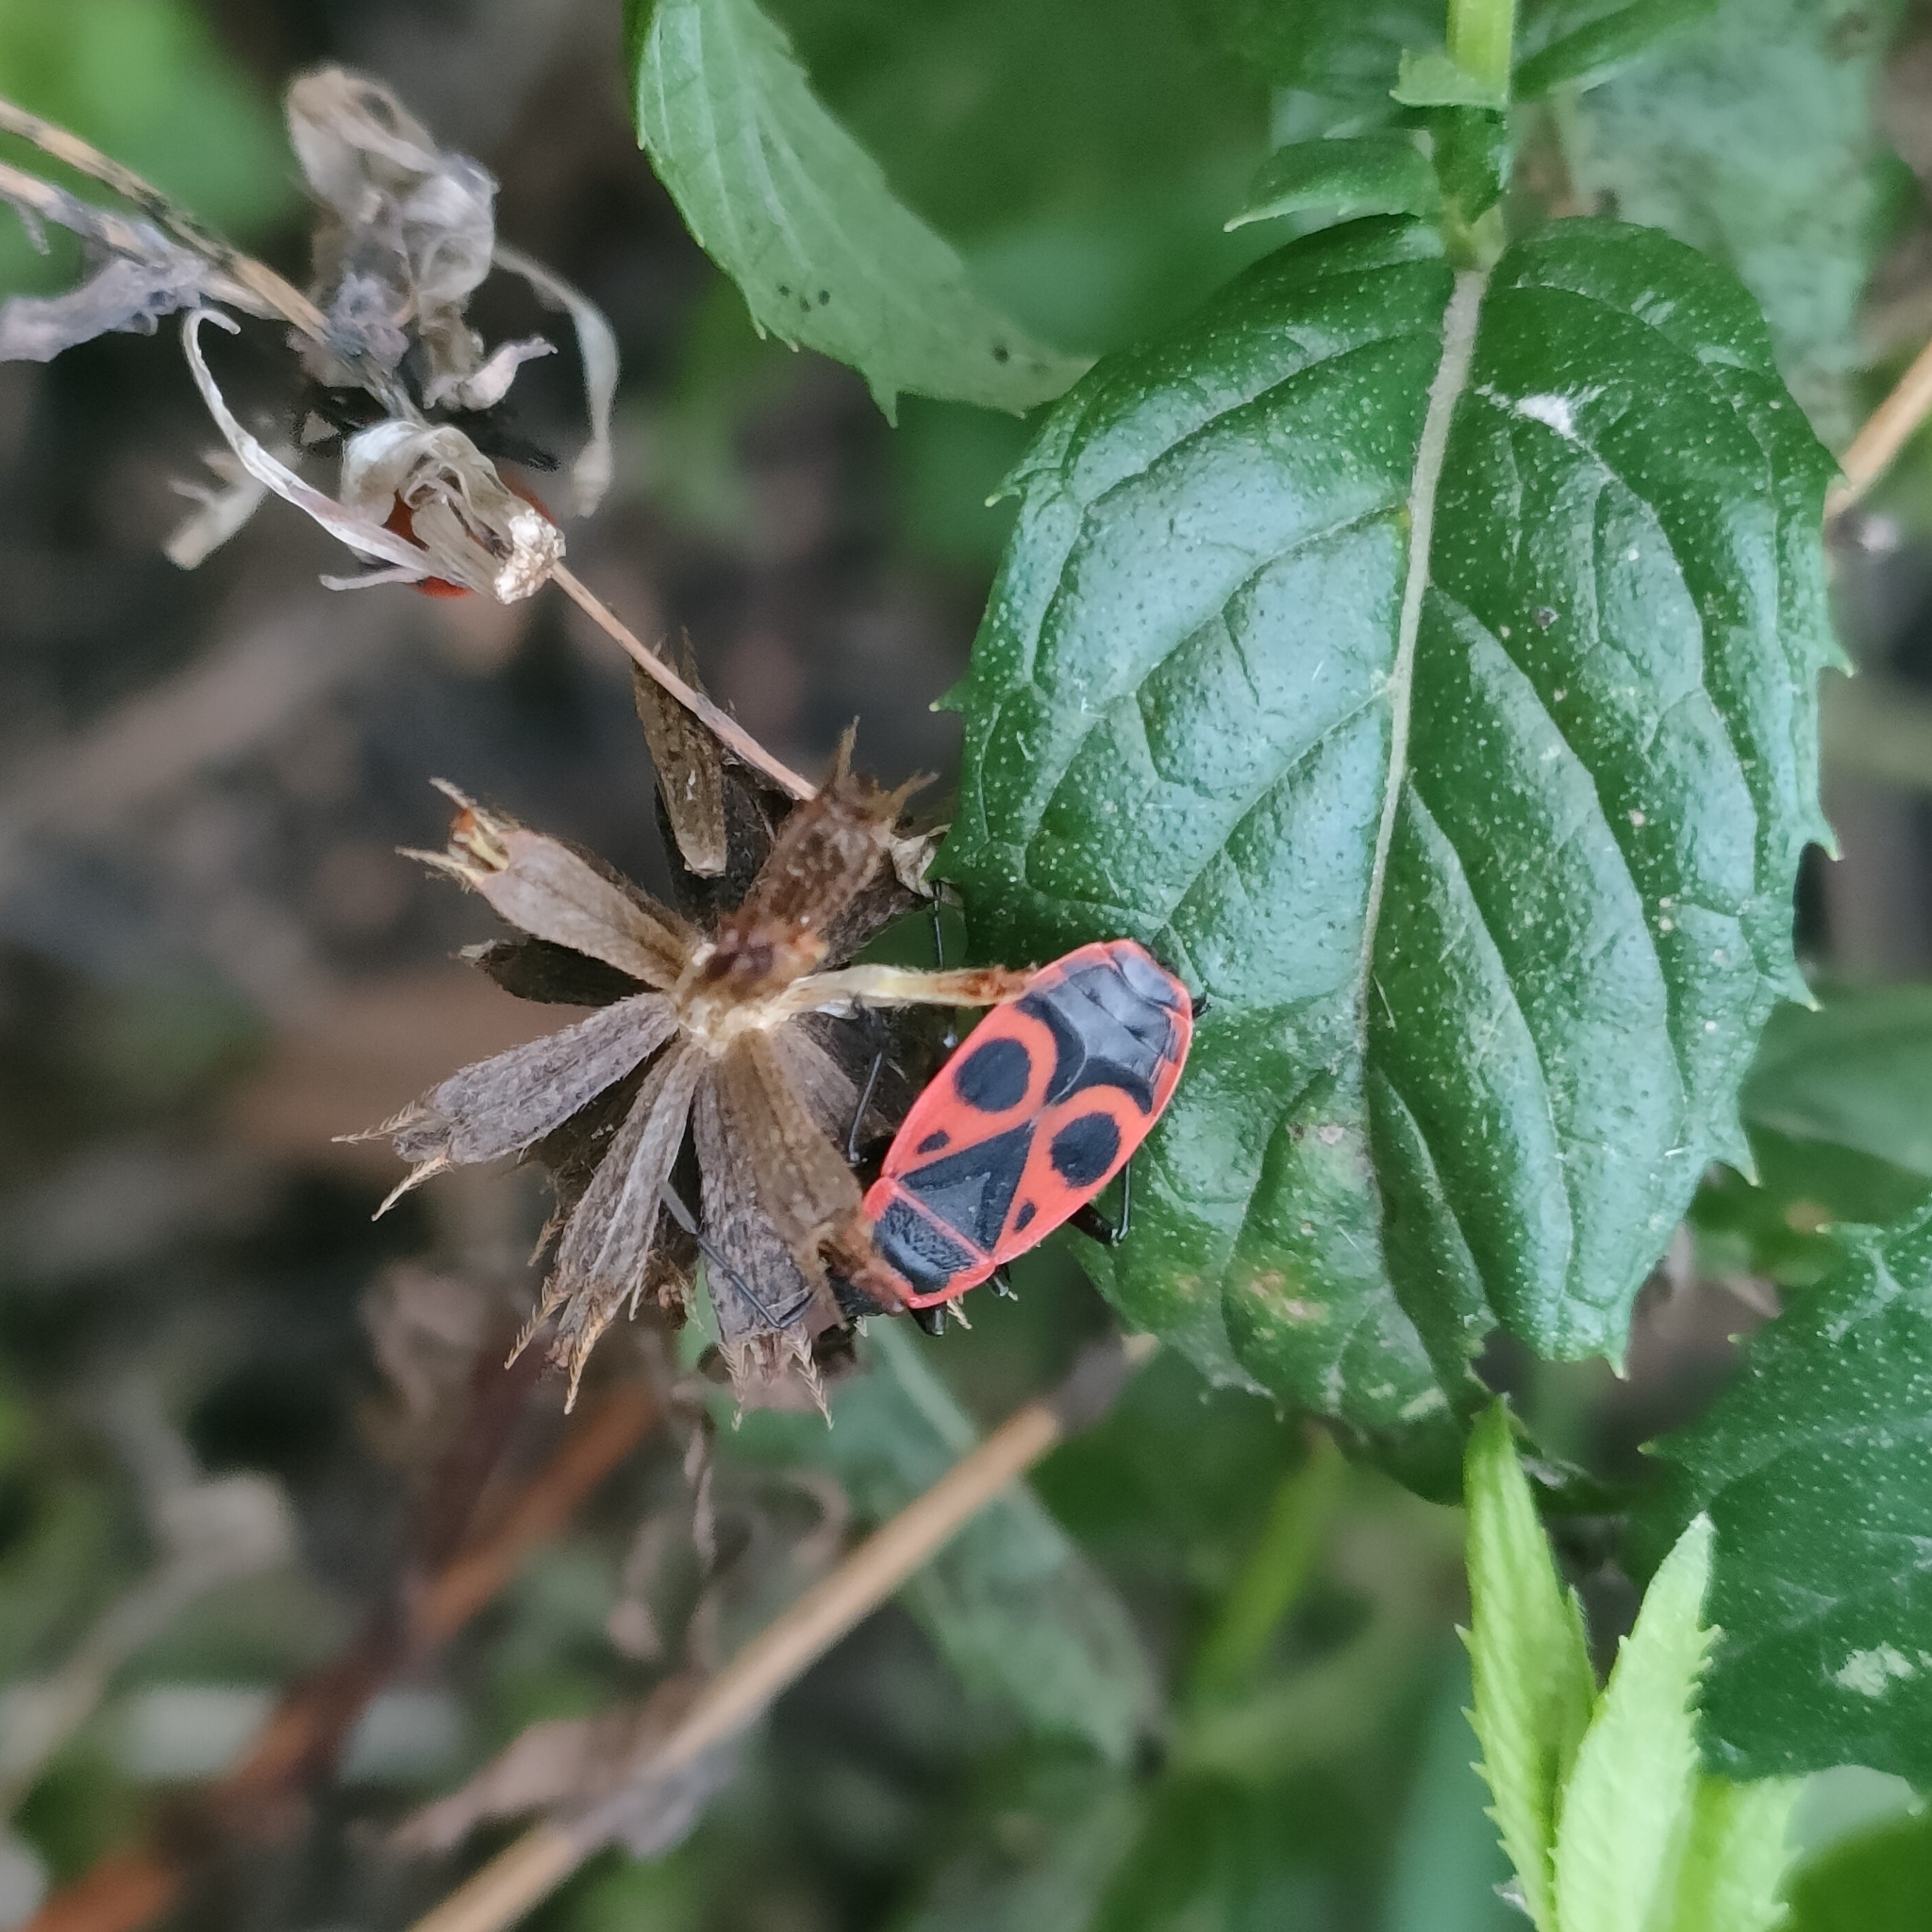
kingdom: Animalia
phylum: Arthropoda
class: Insecta
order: Hemiptera
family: Pyrrhocoridae
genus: Pyrrhocoris
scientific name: Pyrrhocoris apterus
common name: Firebug
